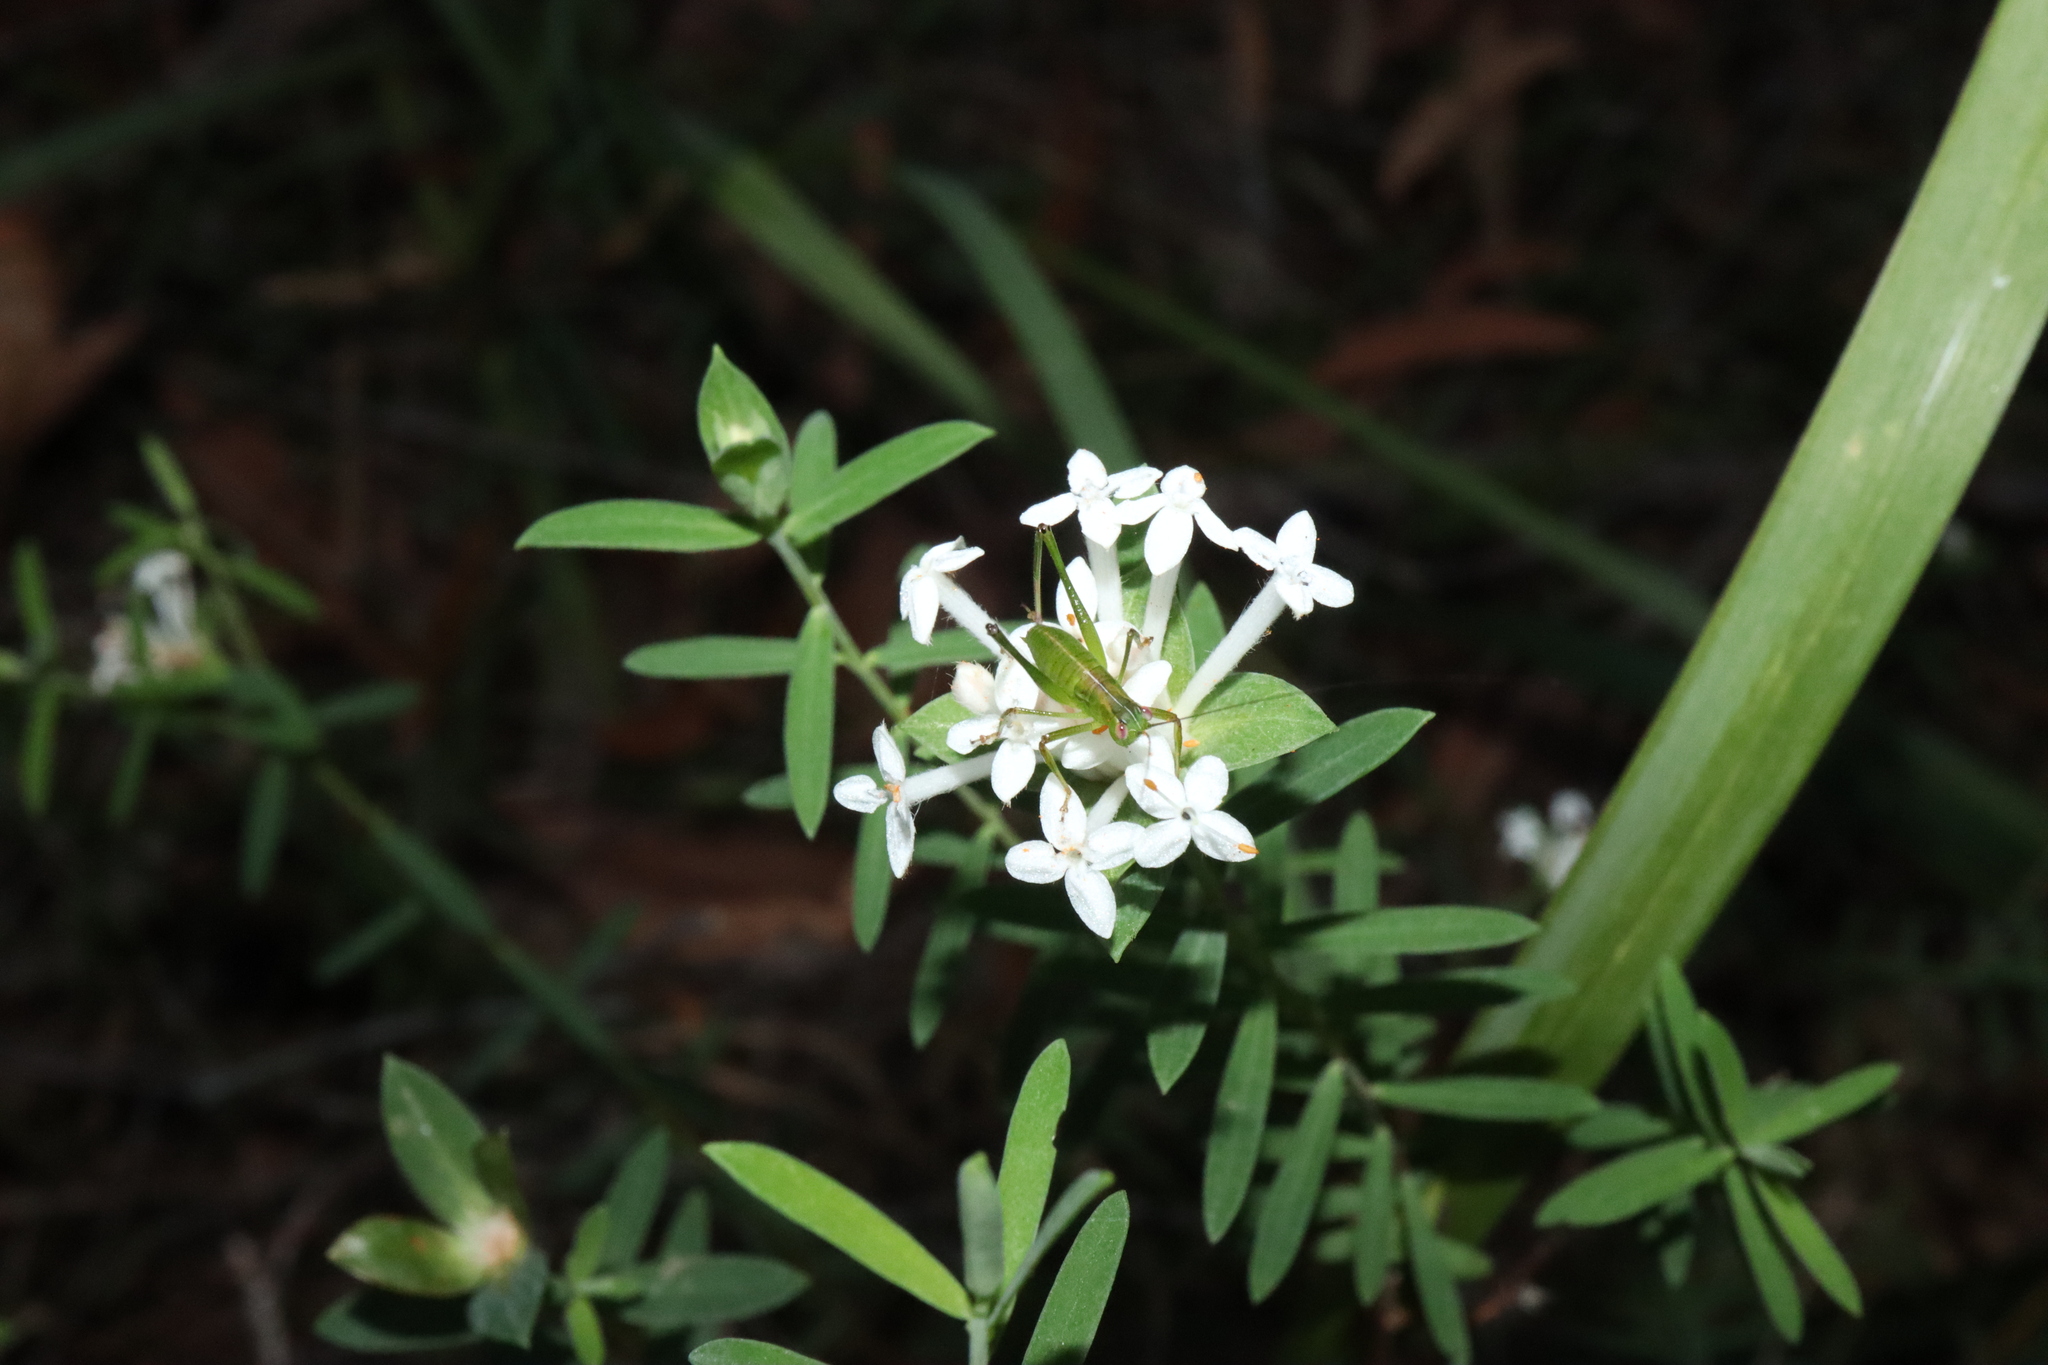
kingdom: Plantae
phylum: Tracheophyta
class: Magnoliopsida
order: Malvales
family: Thymelaeaceae
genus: Pimelea
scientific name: Pimelea linifolia
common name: Queen-of-the-bush
